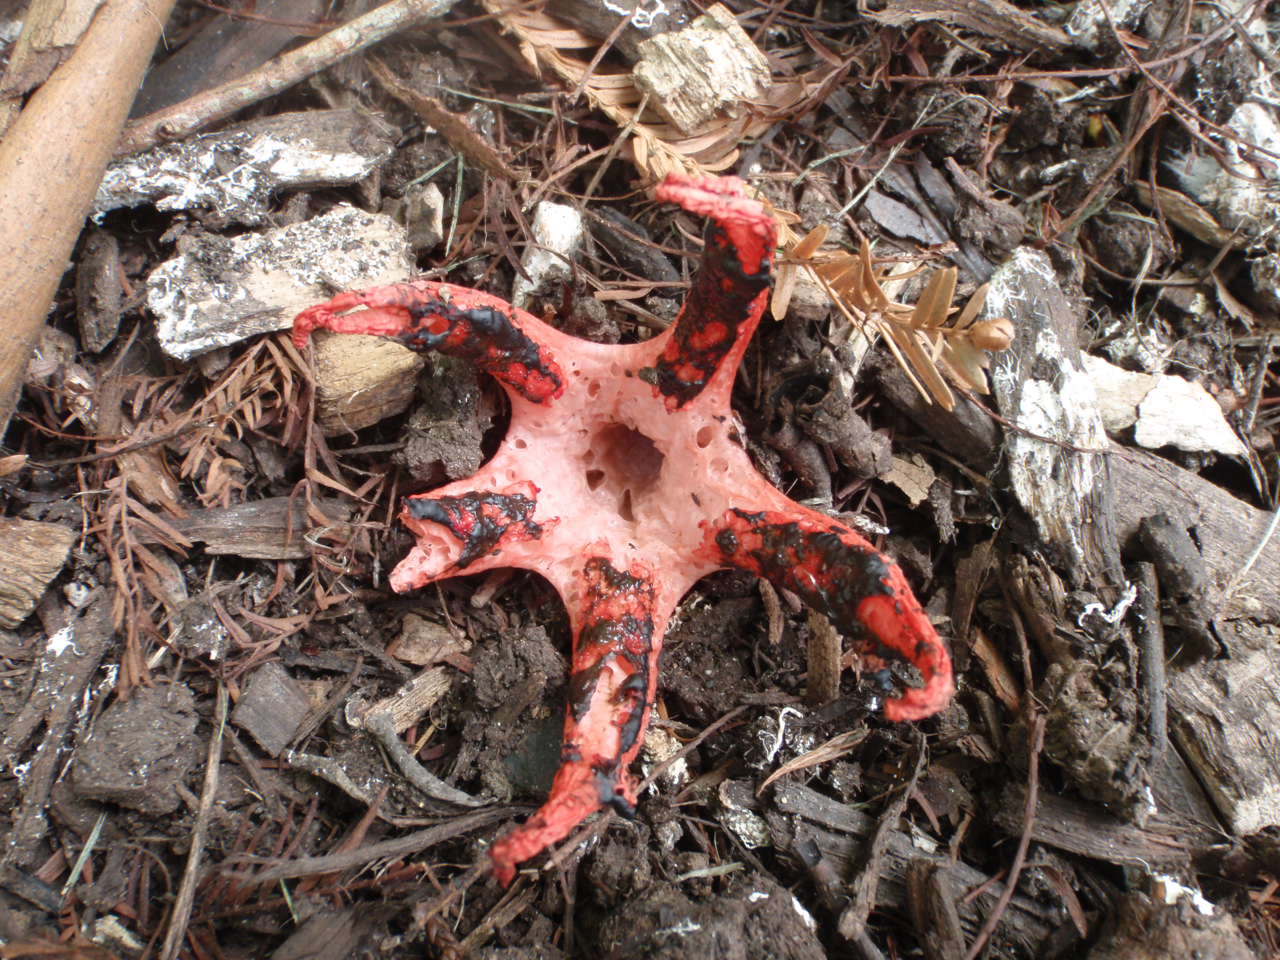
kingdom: Fungi
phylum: Basidiomycota
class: Agaricomycetes
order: Phallales
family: Phallaceae
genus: Clathrus
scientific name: Clathrus archeri
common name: Devil's fingers
